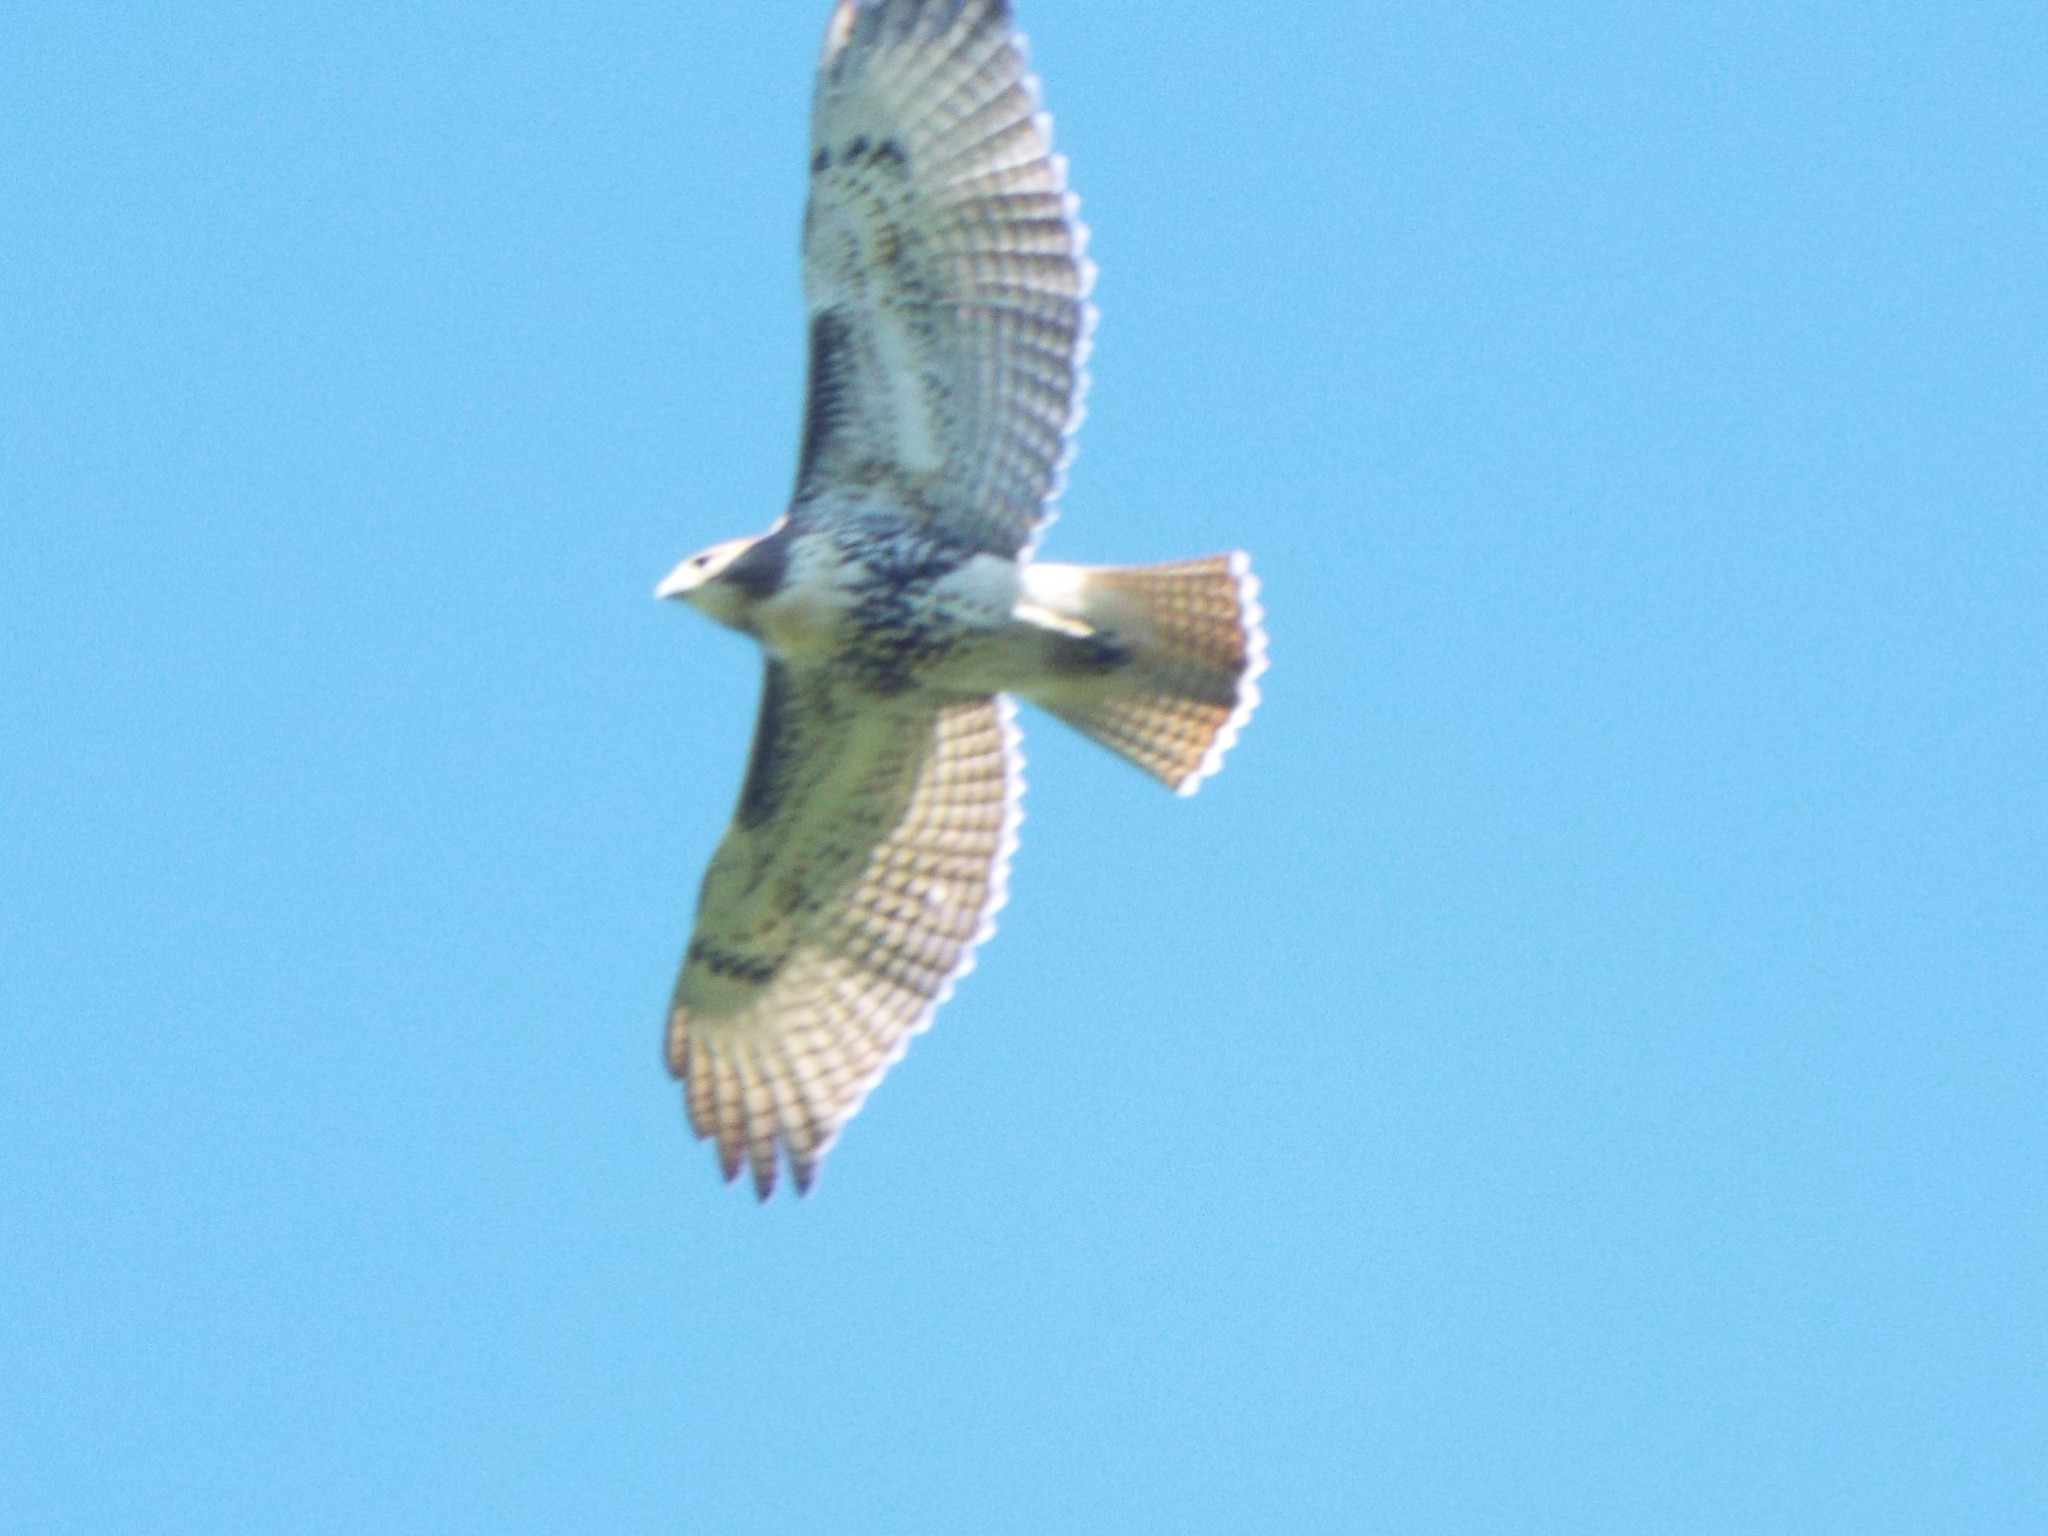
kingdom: Animalia
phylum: Chordata
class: Aves
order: Accipitriformes
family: Accipitridae
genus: Buteo
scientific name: Buteo jamaicensis
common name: Red-tailed hawk
